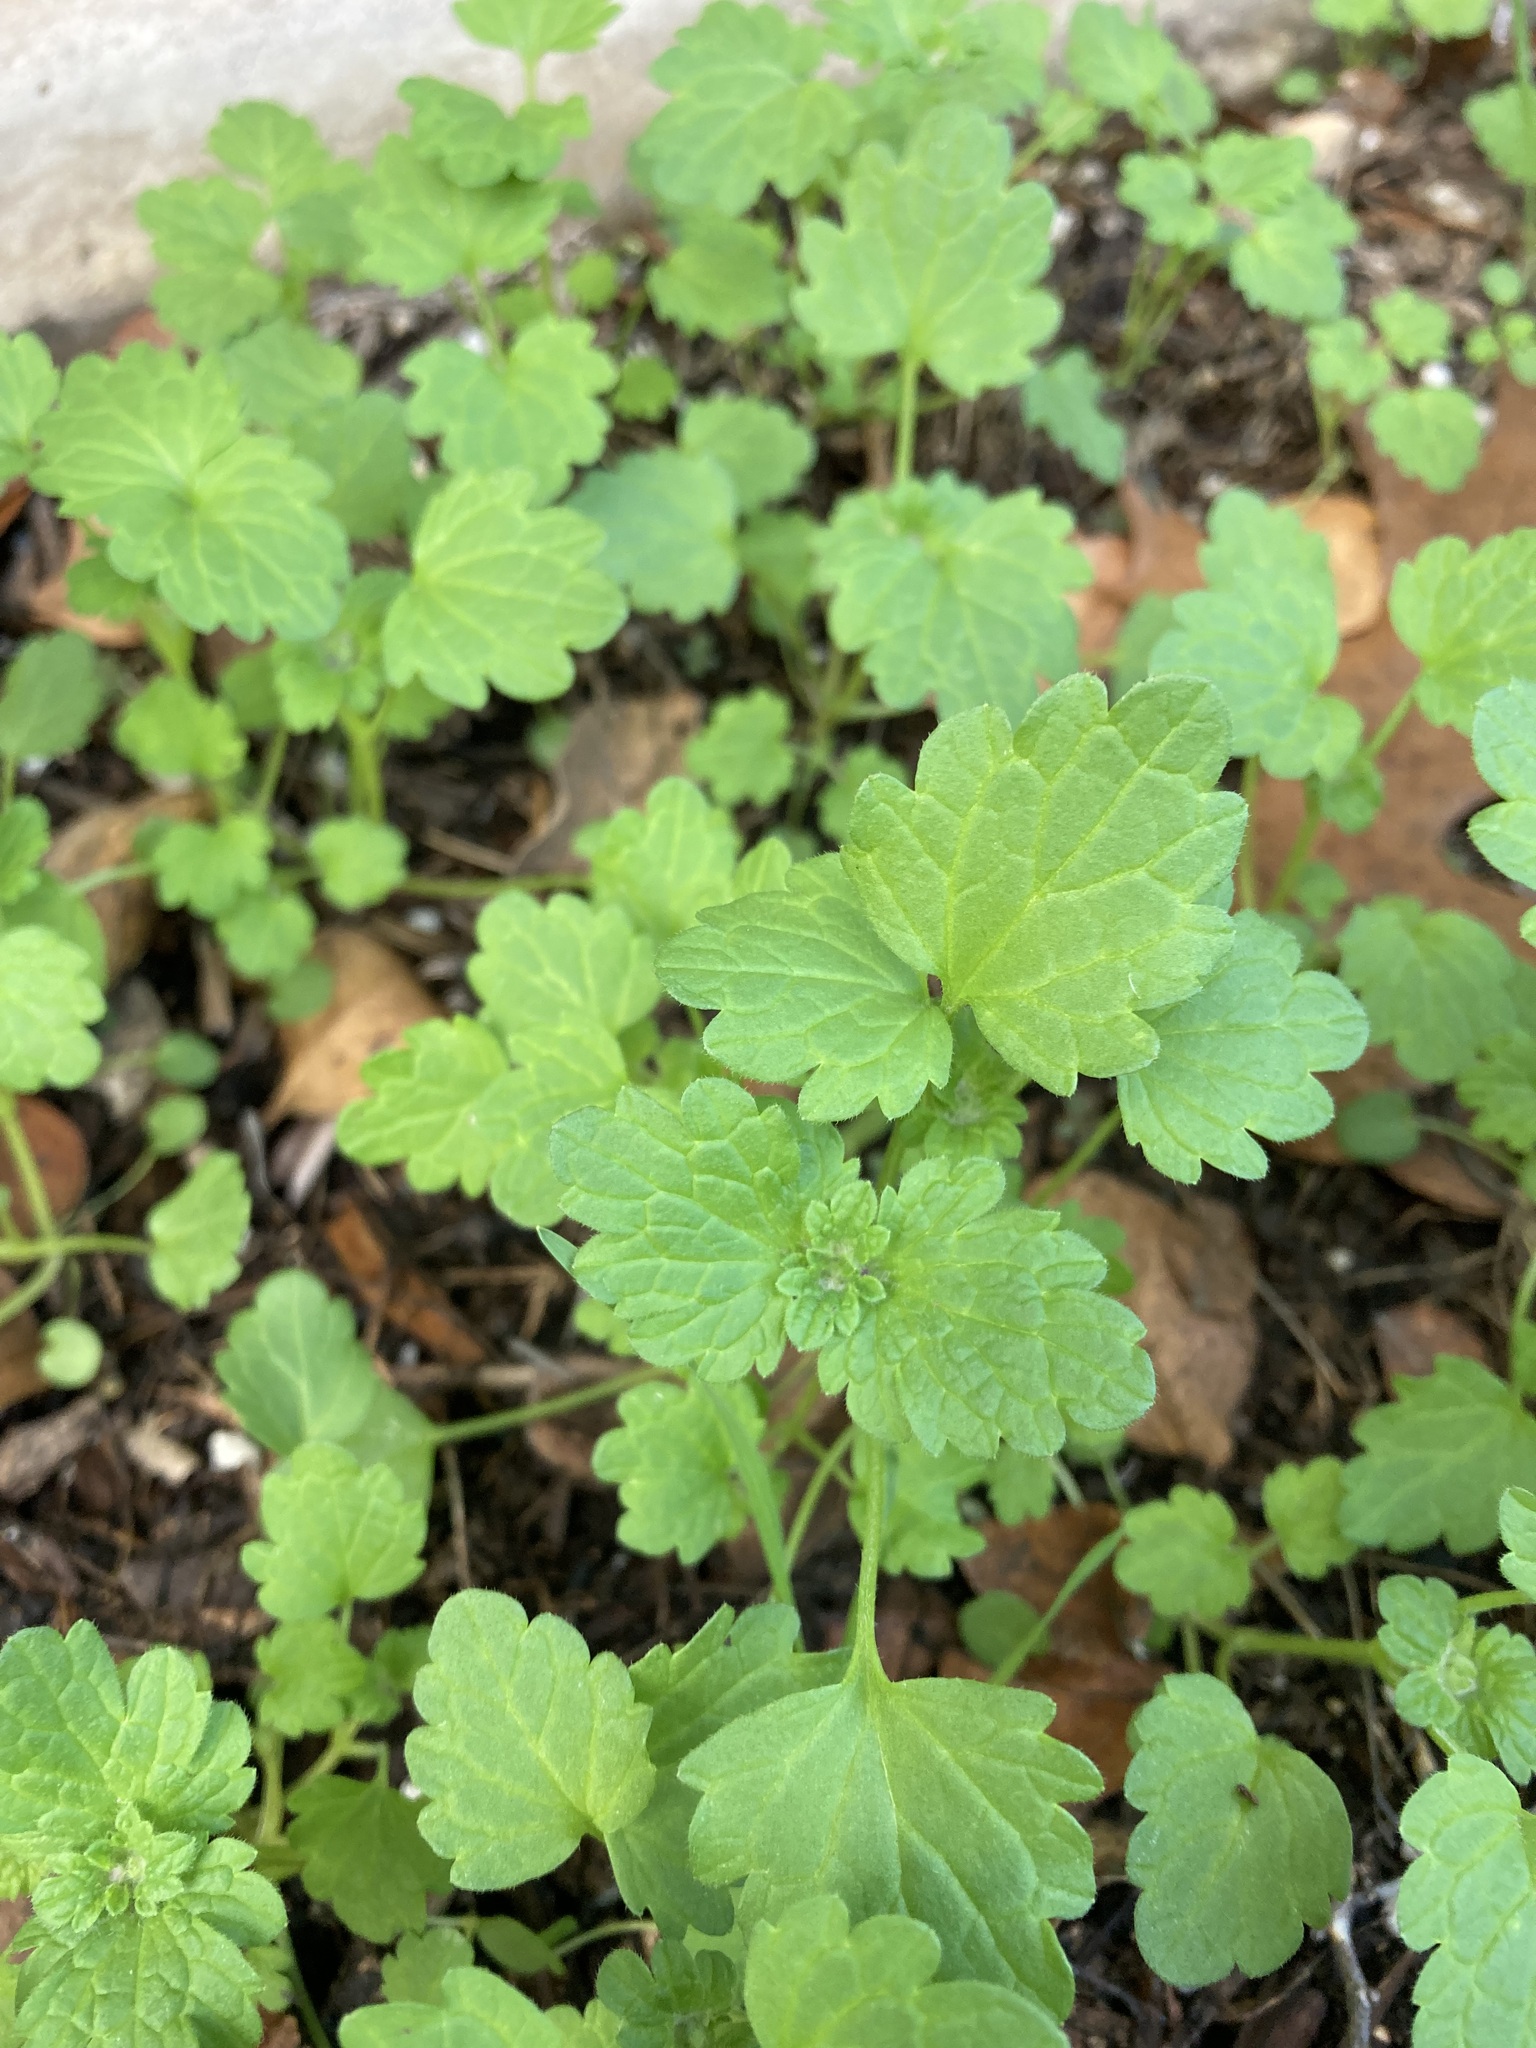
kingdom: Plantae
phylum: Tracheophyta
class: Magnoliopsida
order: Lamiales
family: Lamiaceae
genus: Lamium
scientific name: Lamium amplexicaule
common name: Henbit dead-nettle
